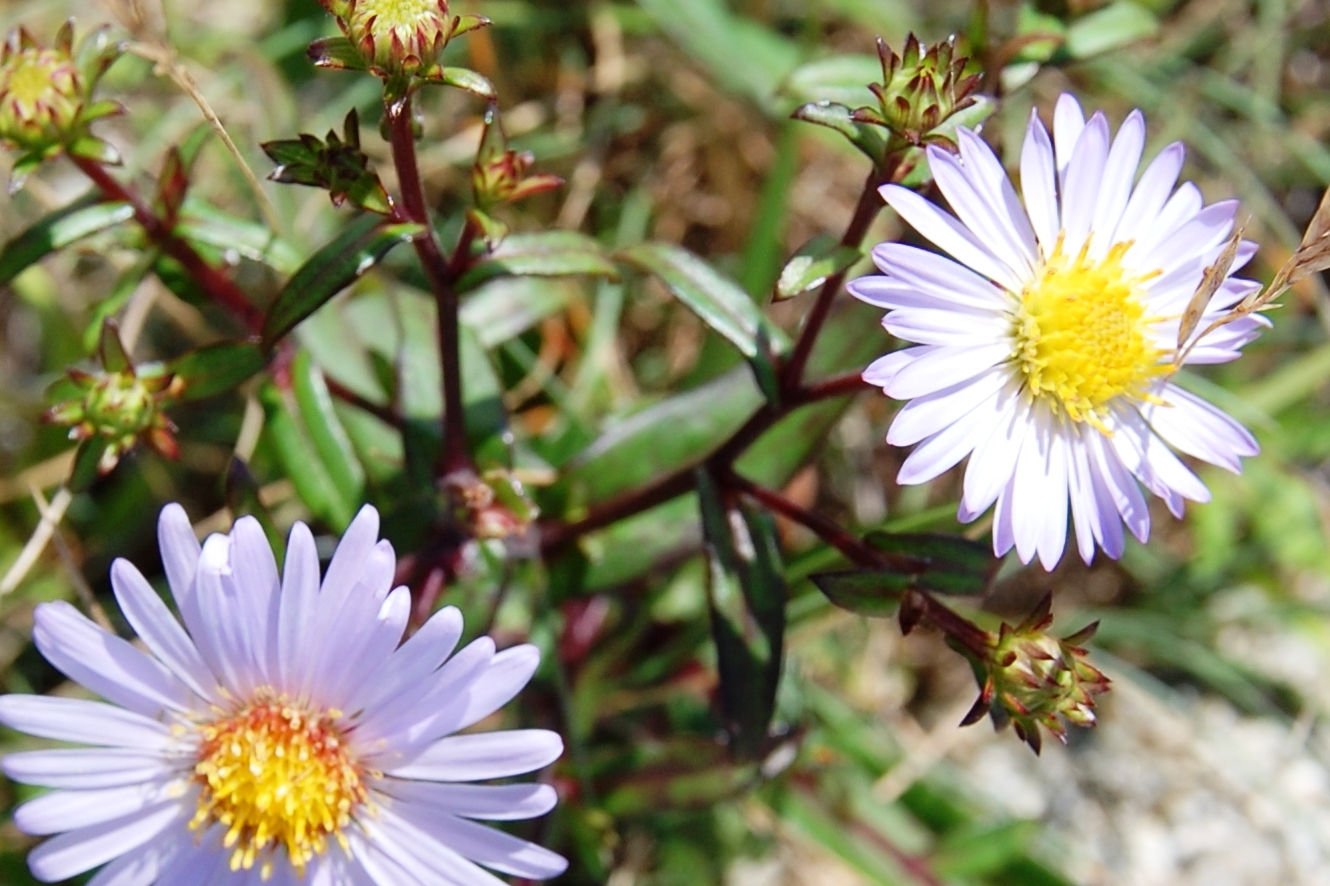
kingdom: Plantae
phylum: Tracheophyta
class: Magnoliopsida
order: Asterales
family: Asteraceae
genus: Symphyotrichum
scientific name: Symphyotrichum puniceum
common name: Bog aster
